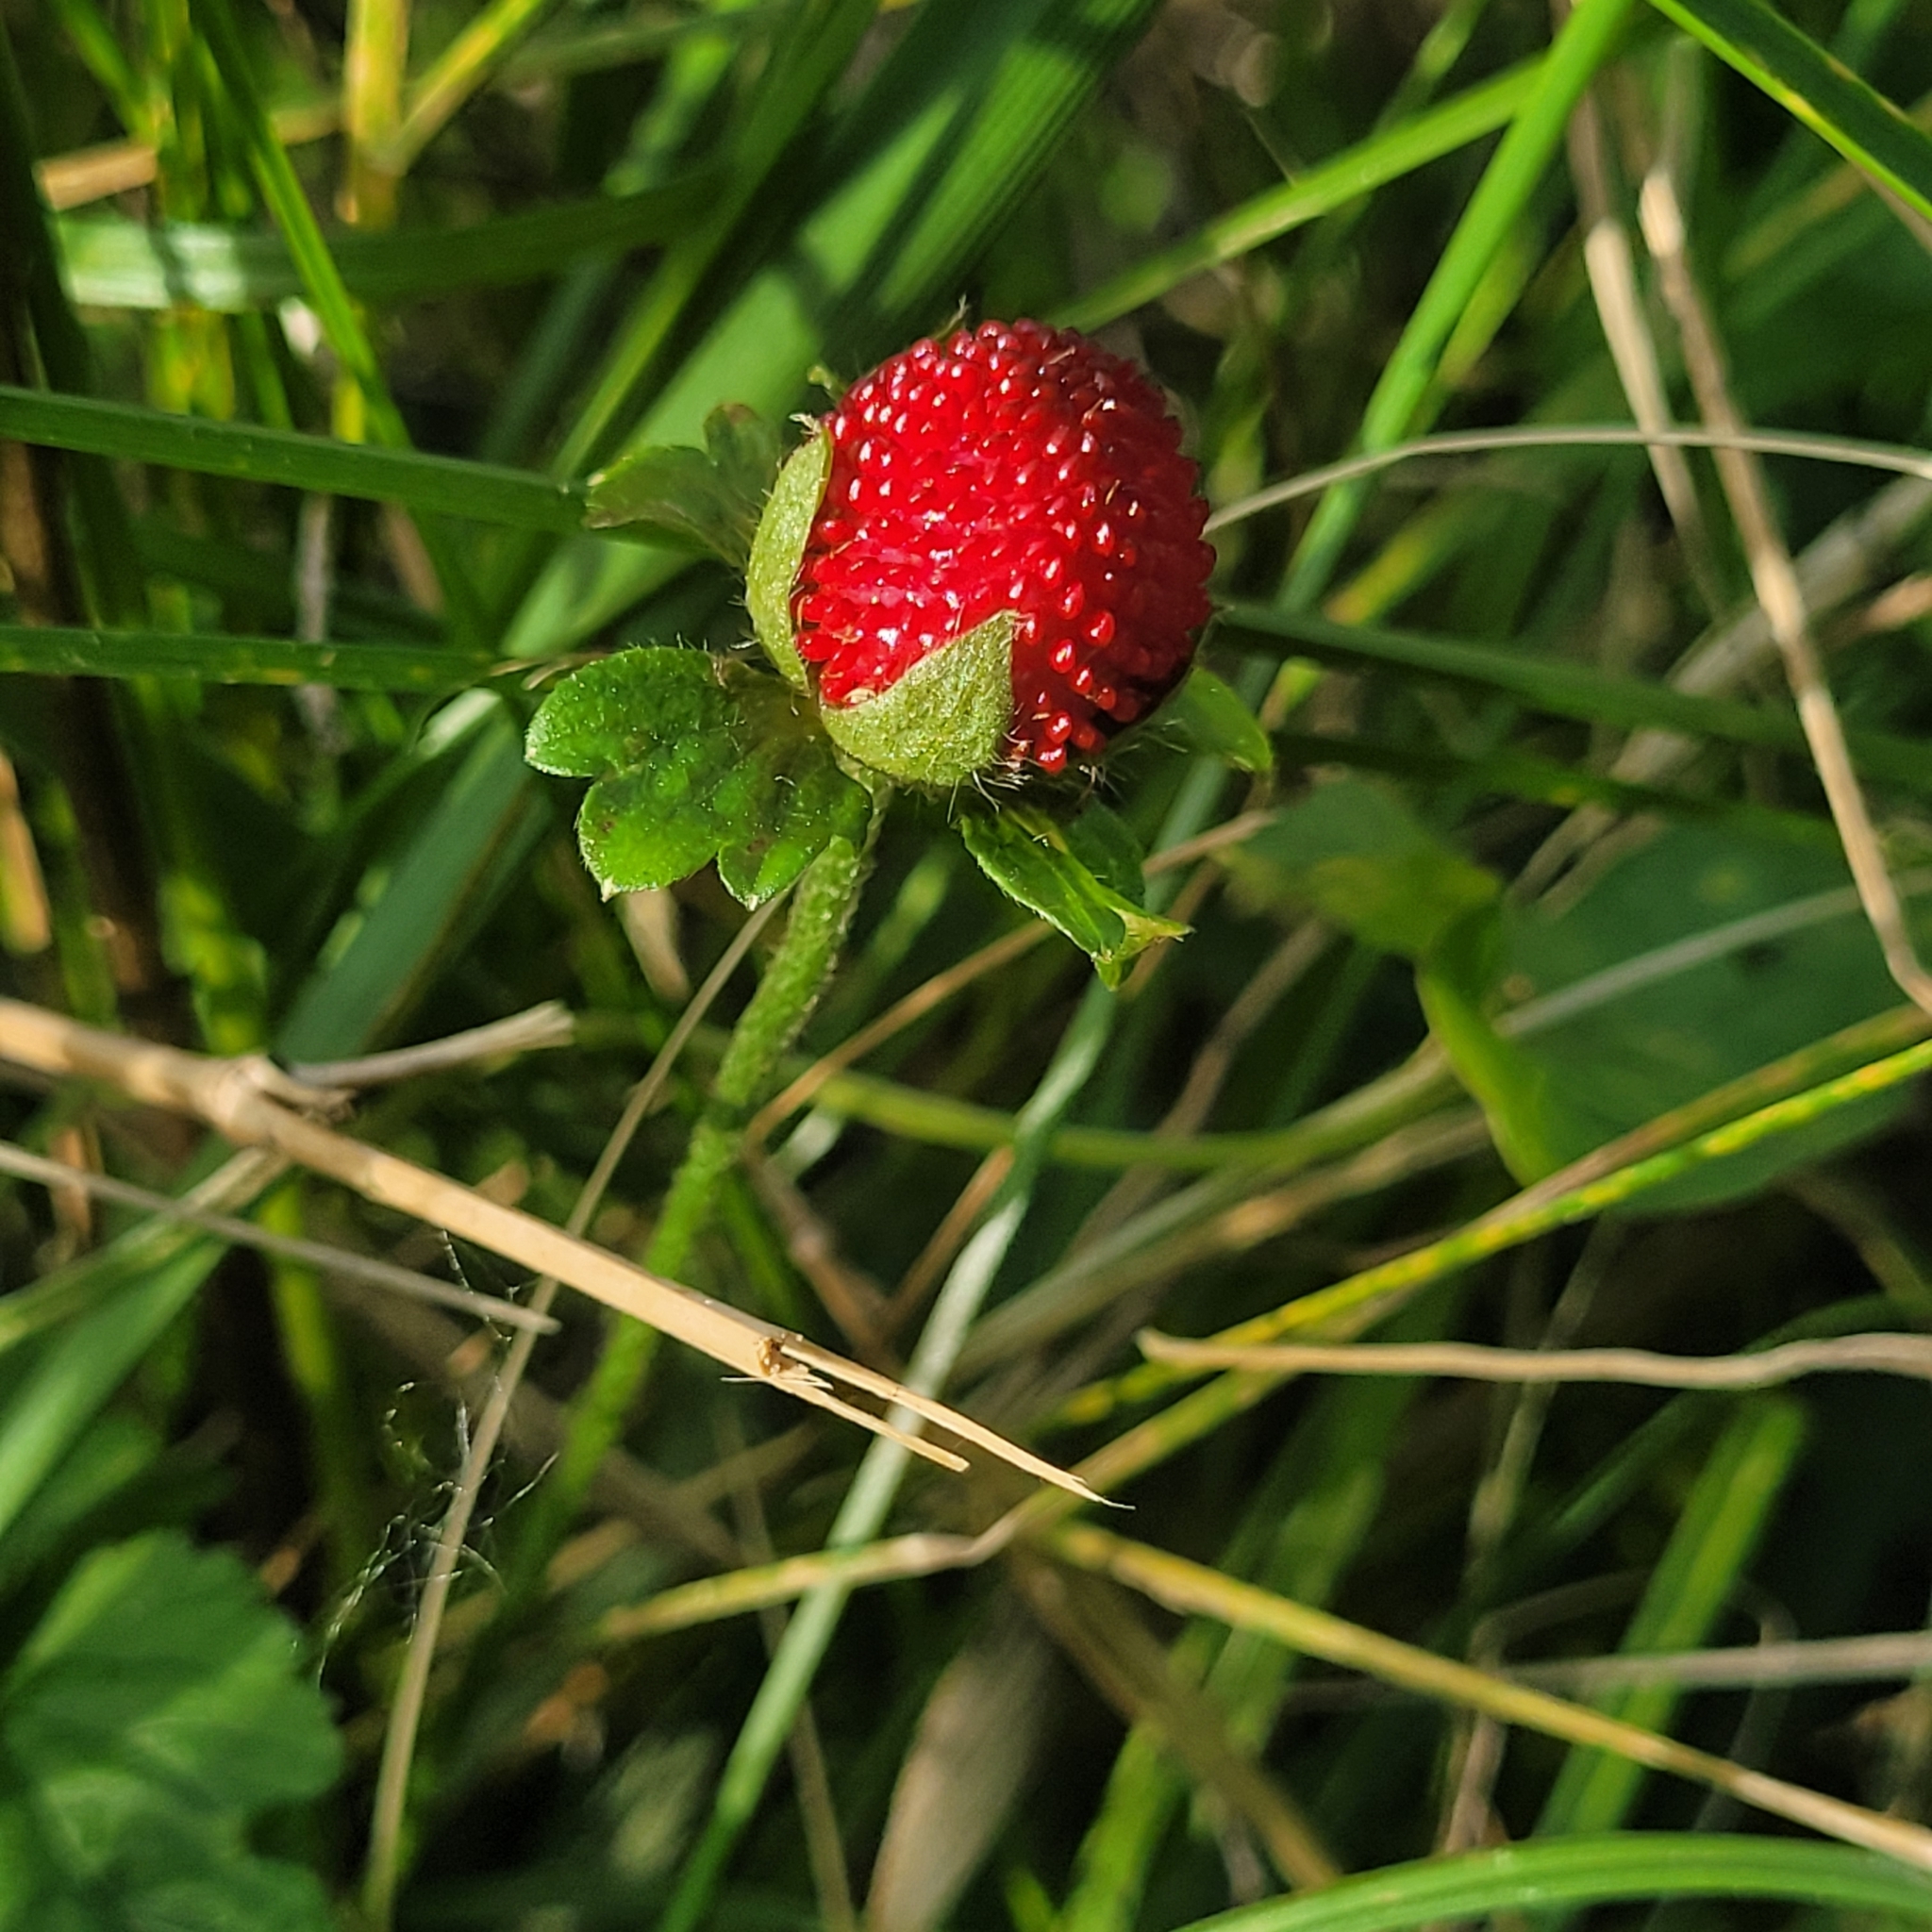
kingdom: Plantae
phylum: Tracheophyta
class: Magnoliopsida
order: Rosales
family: Rosaceae
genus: Potentilla
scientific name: Potentilla indica
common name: Yellow-flowered strawberry
